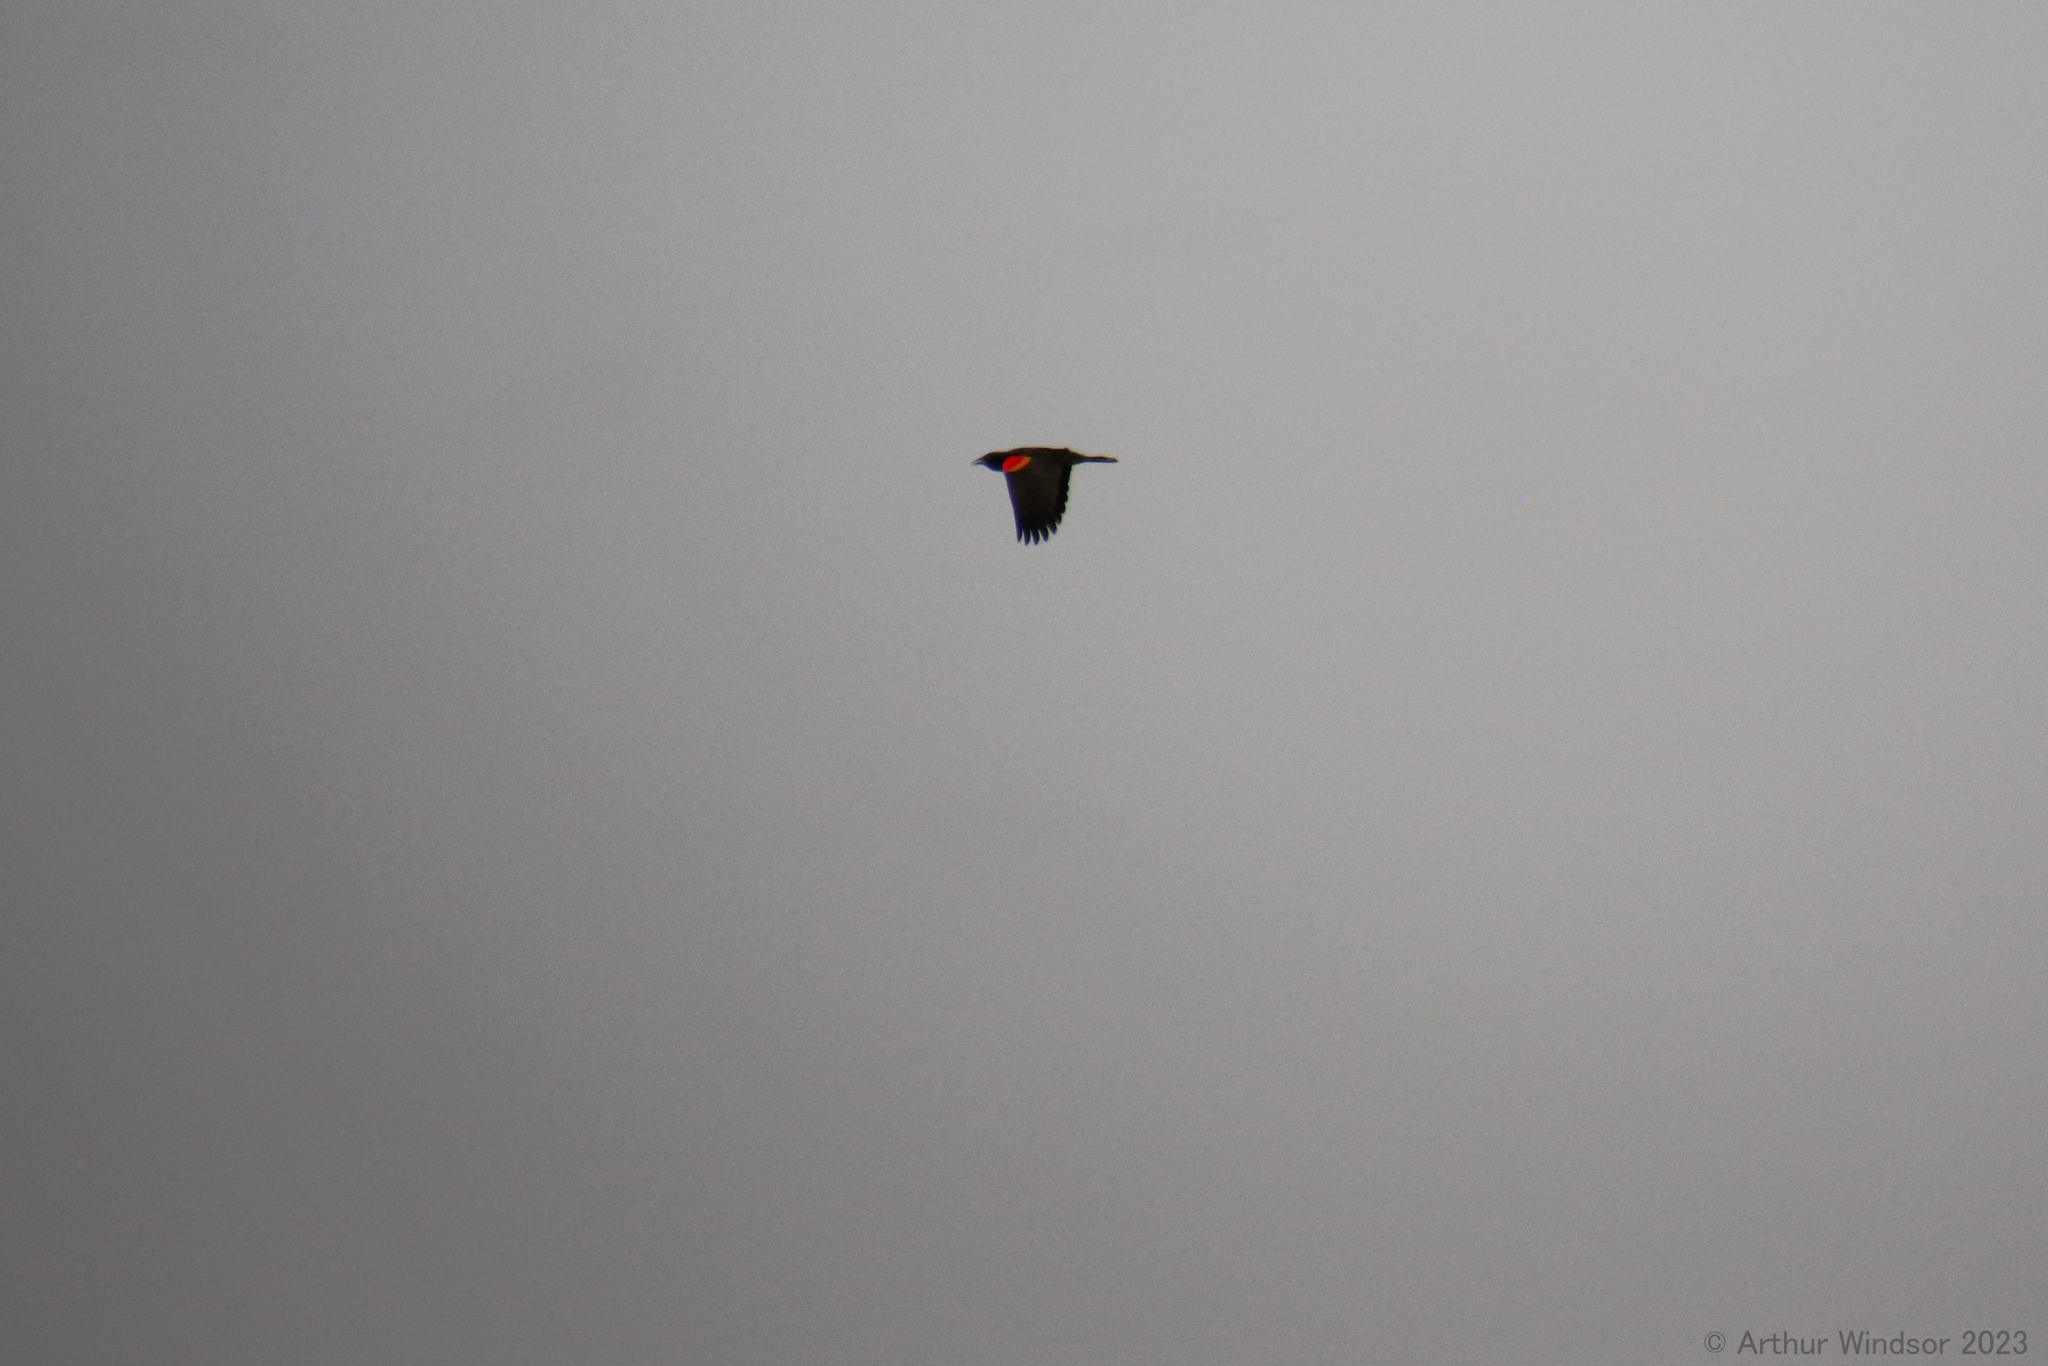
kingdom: Animalia
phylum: Chordata
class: Aves
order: Passeriformes
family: Icteridae
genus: Agelaius
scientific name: Agelaius phoeniceus
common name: Red-winged blackbird
